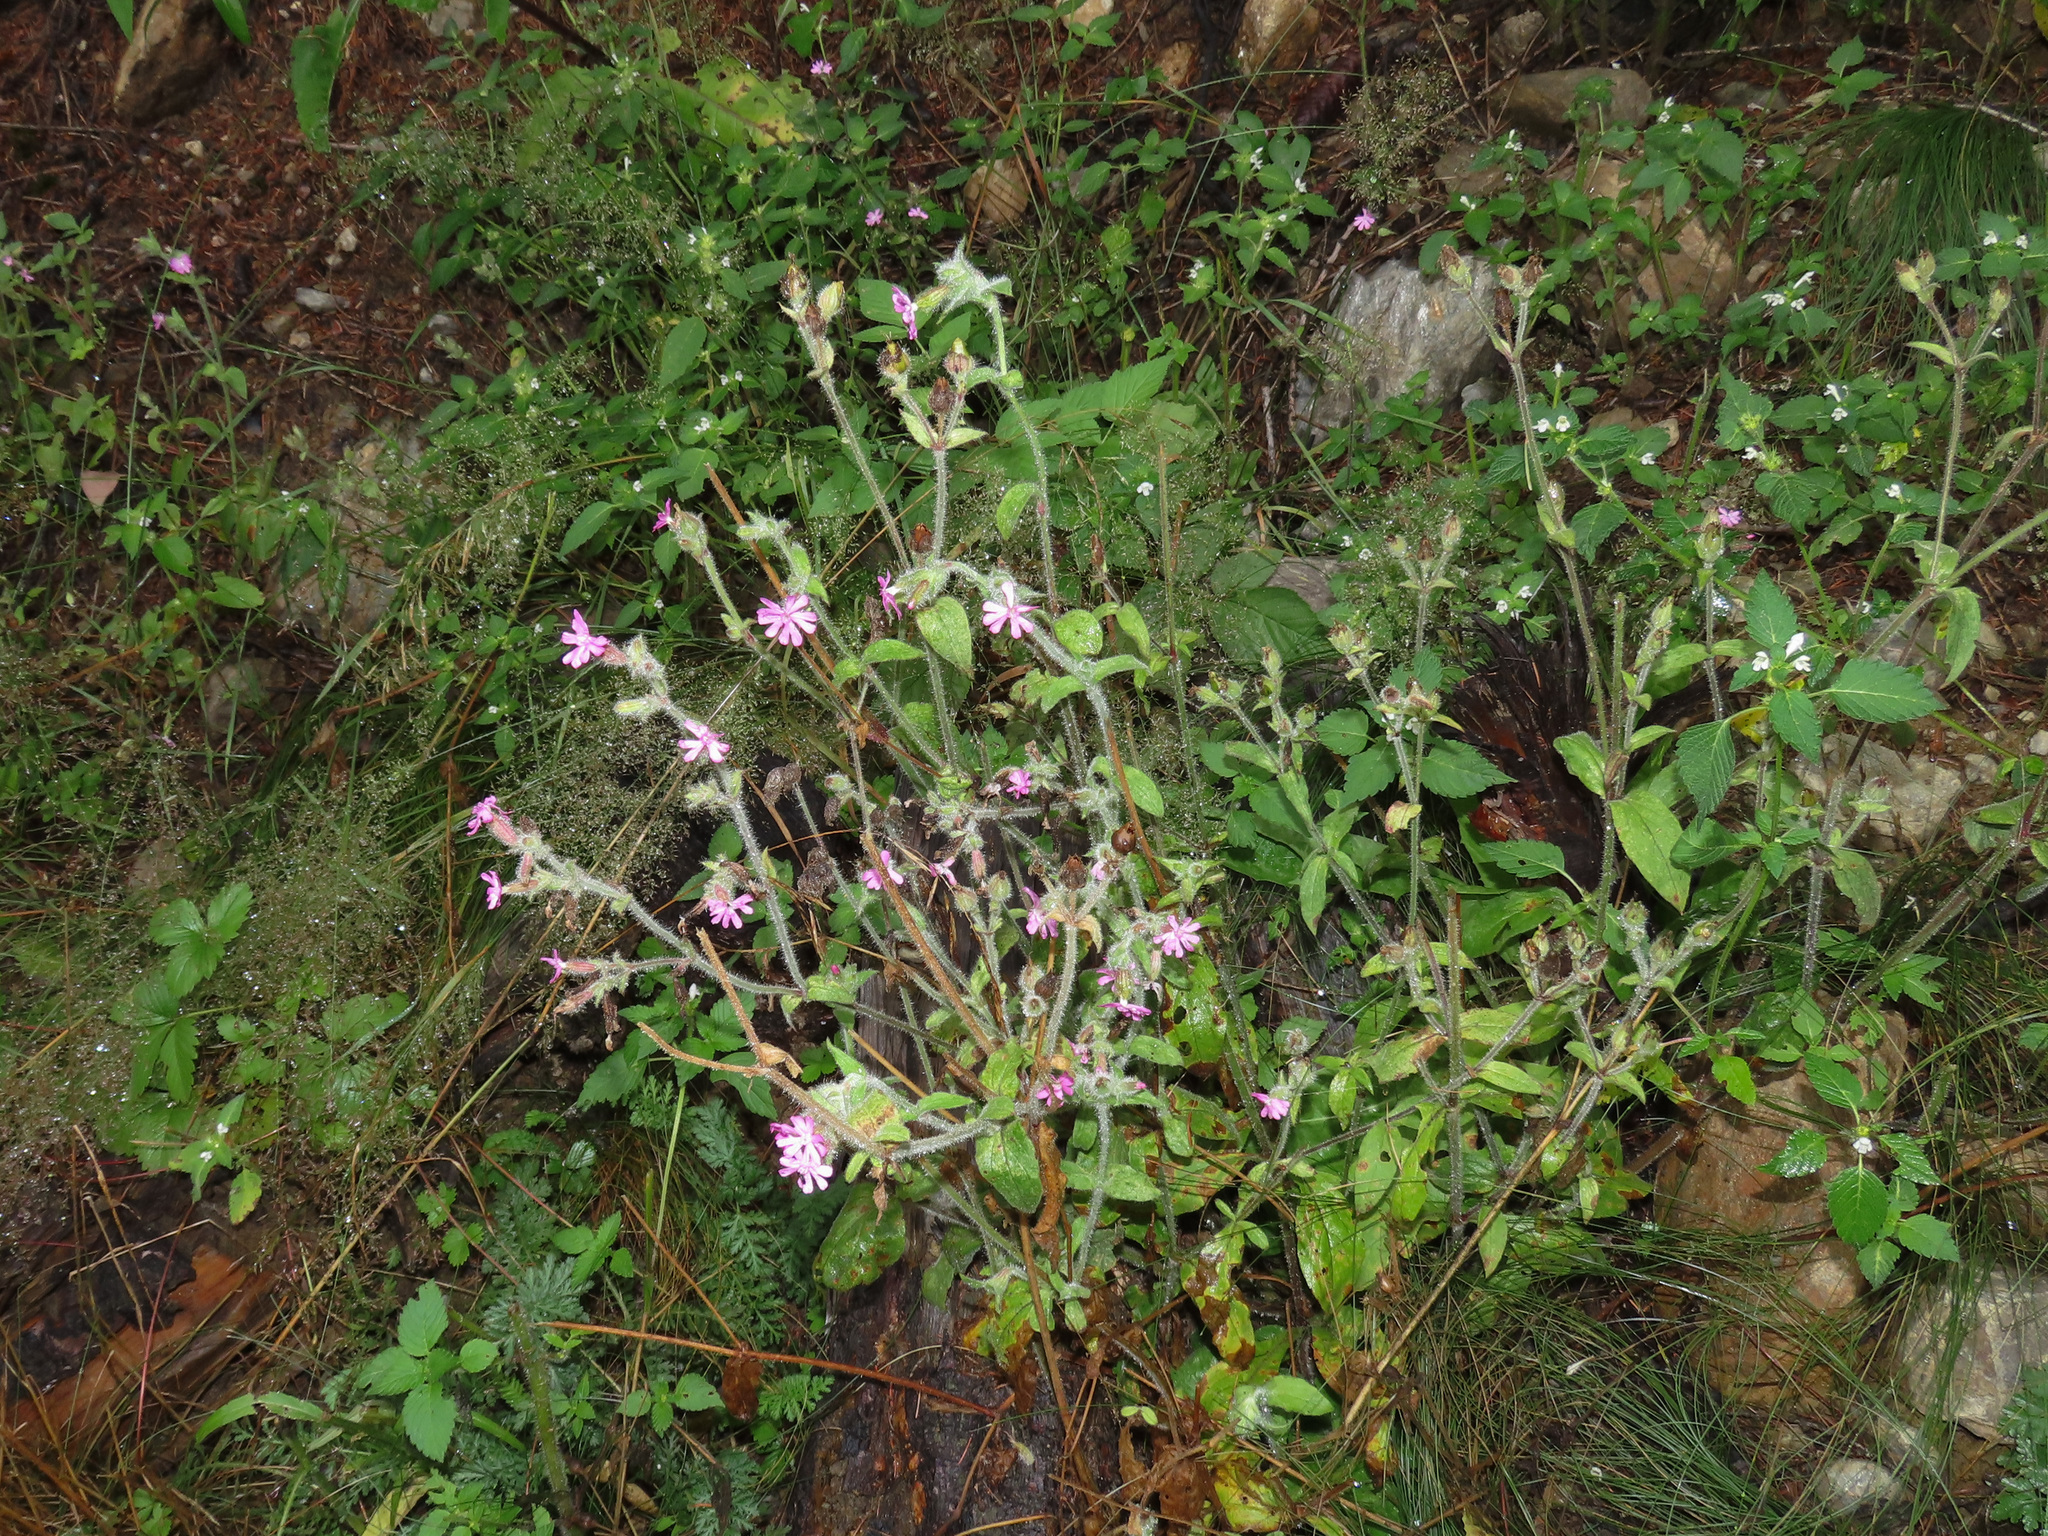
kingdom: Plantae
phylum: Tracheophyta
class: Magnoliopsida
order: Caryophyllales
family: Caryophyllaceae
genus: Silene
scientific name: Silene dioica
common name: Red campion
